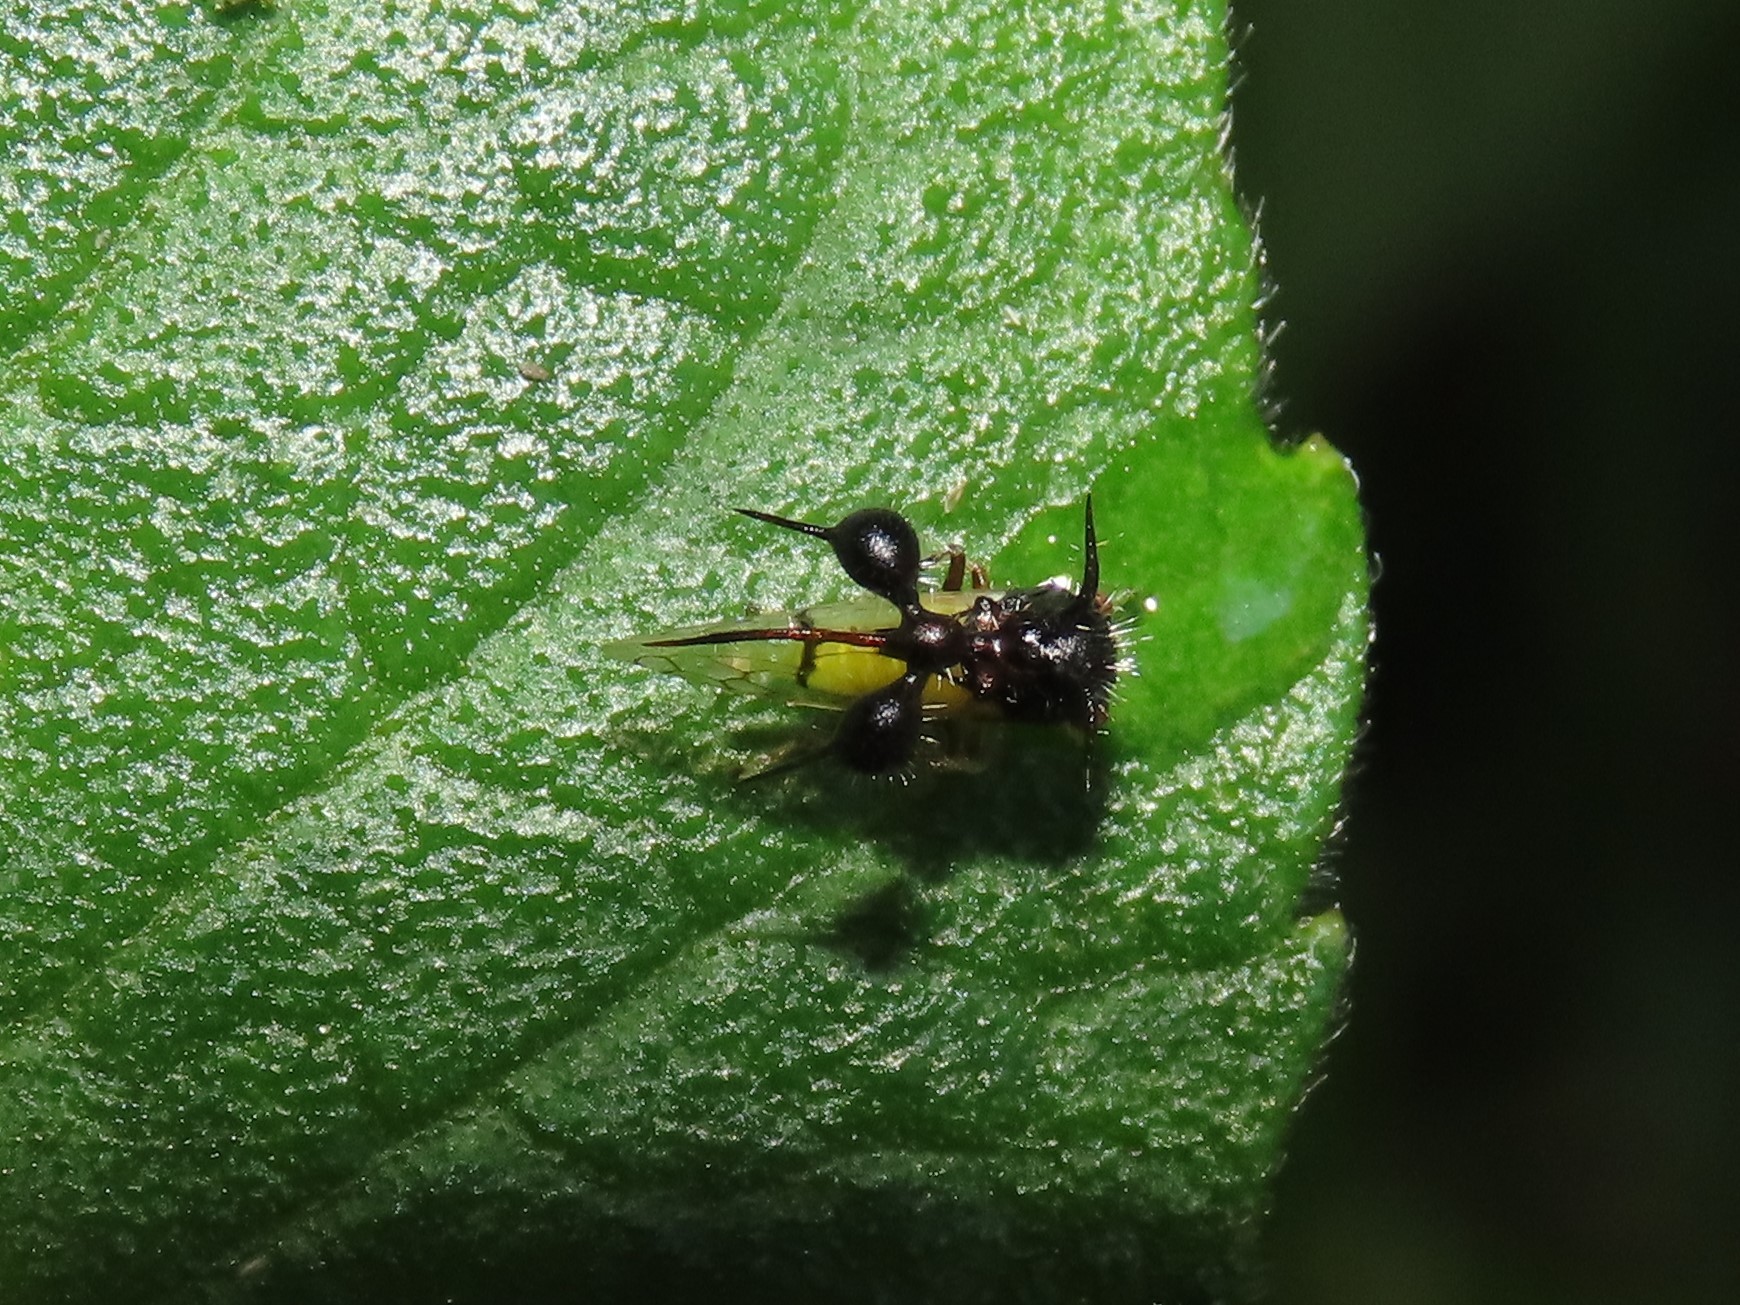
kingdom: Animalia
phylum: Arthropoda
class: Insecta
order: Hemiptera
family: Membracidae
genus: Cyphonia
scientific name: Cyphonia clavata
